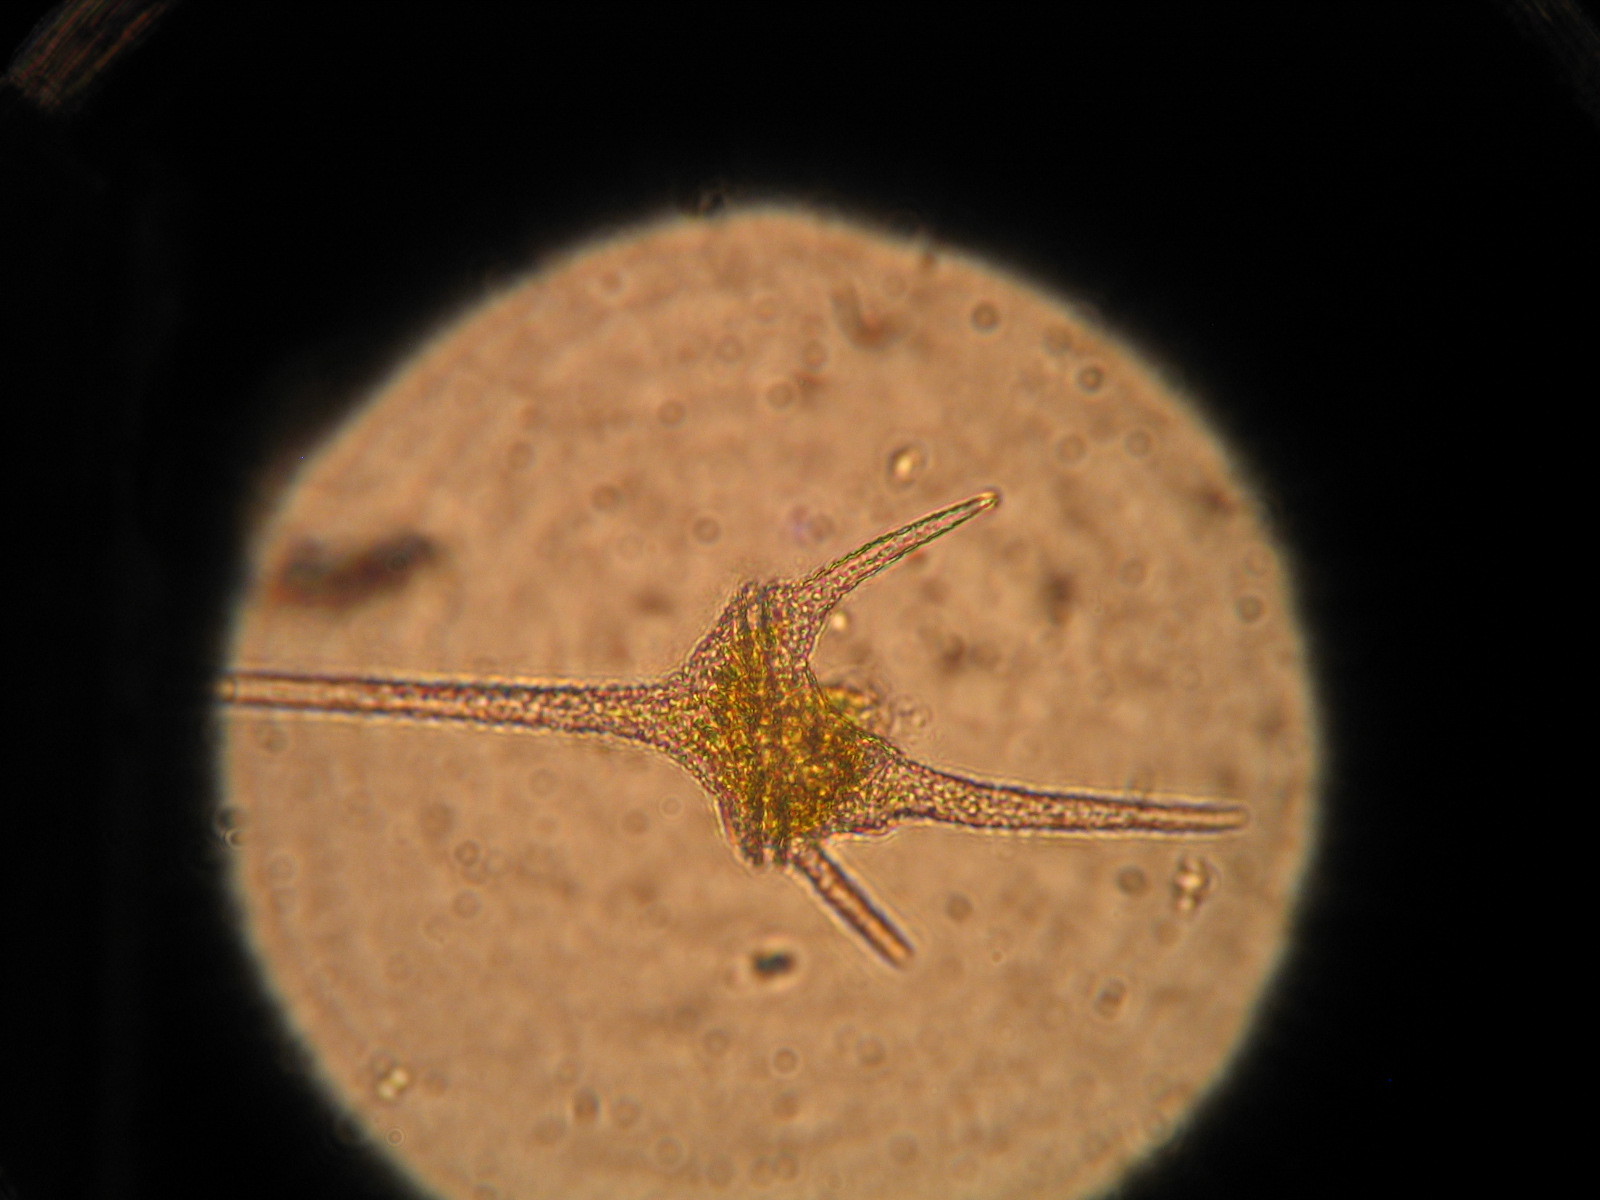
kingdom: Chromista
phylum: Myzozoa
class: Dinophyceae
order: Gonyaulacales
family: Ceratiaceae
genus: Ceratium
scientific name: Ceratium hirundinella
